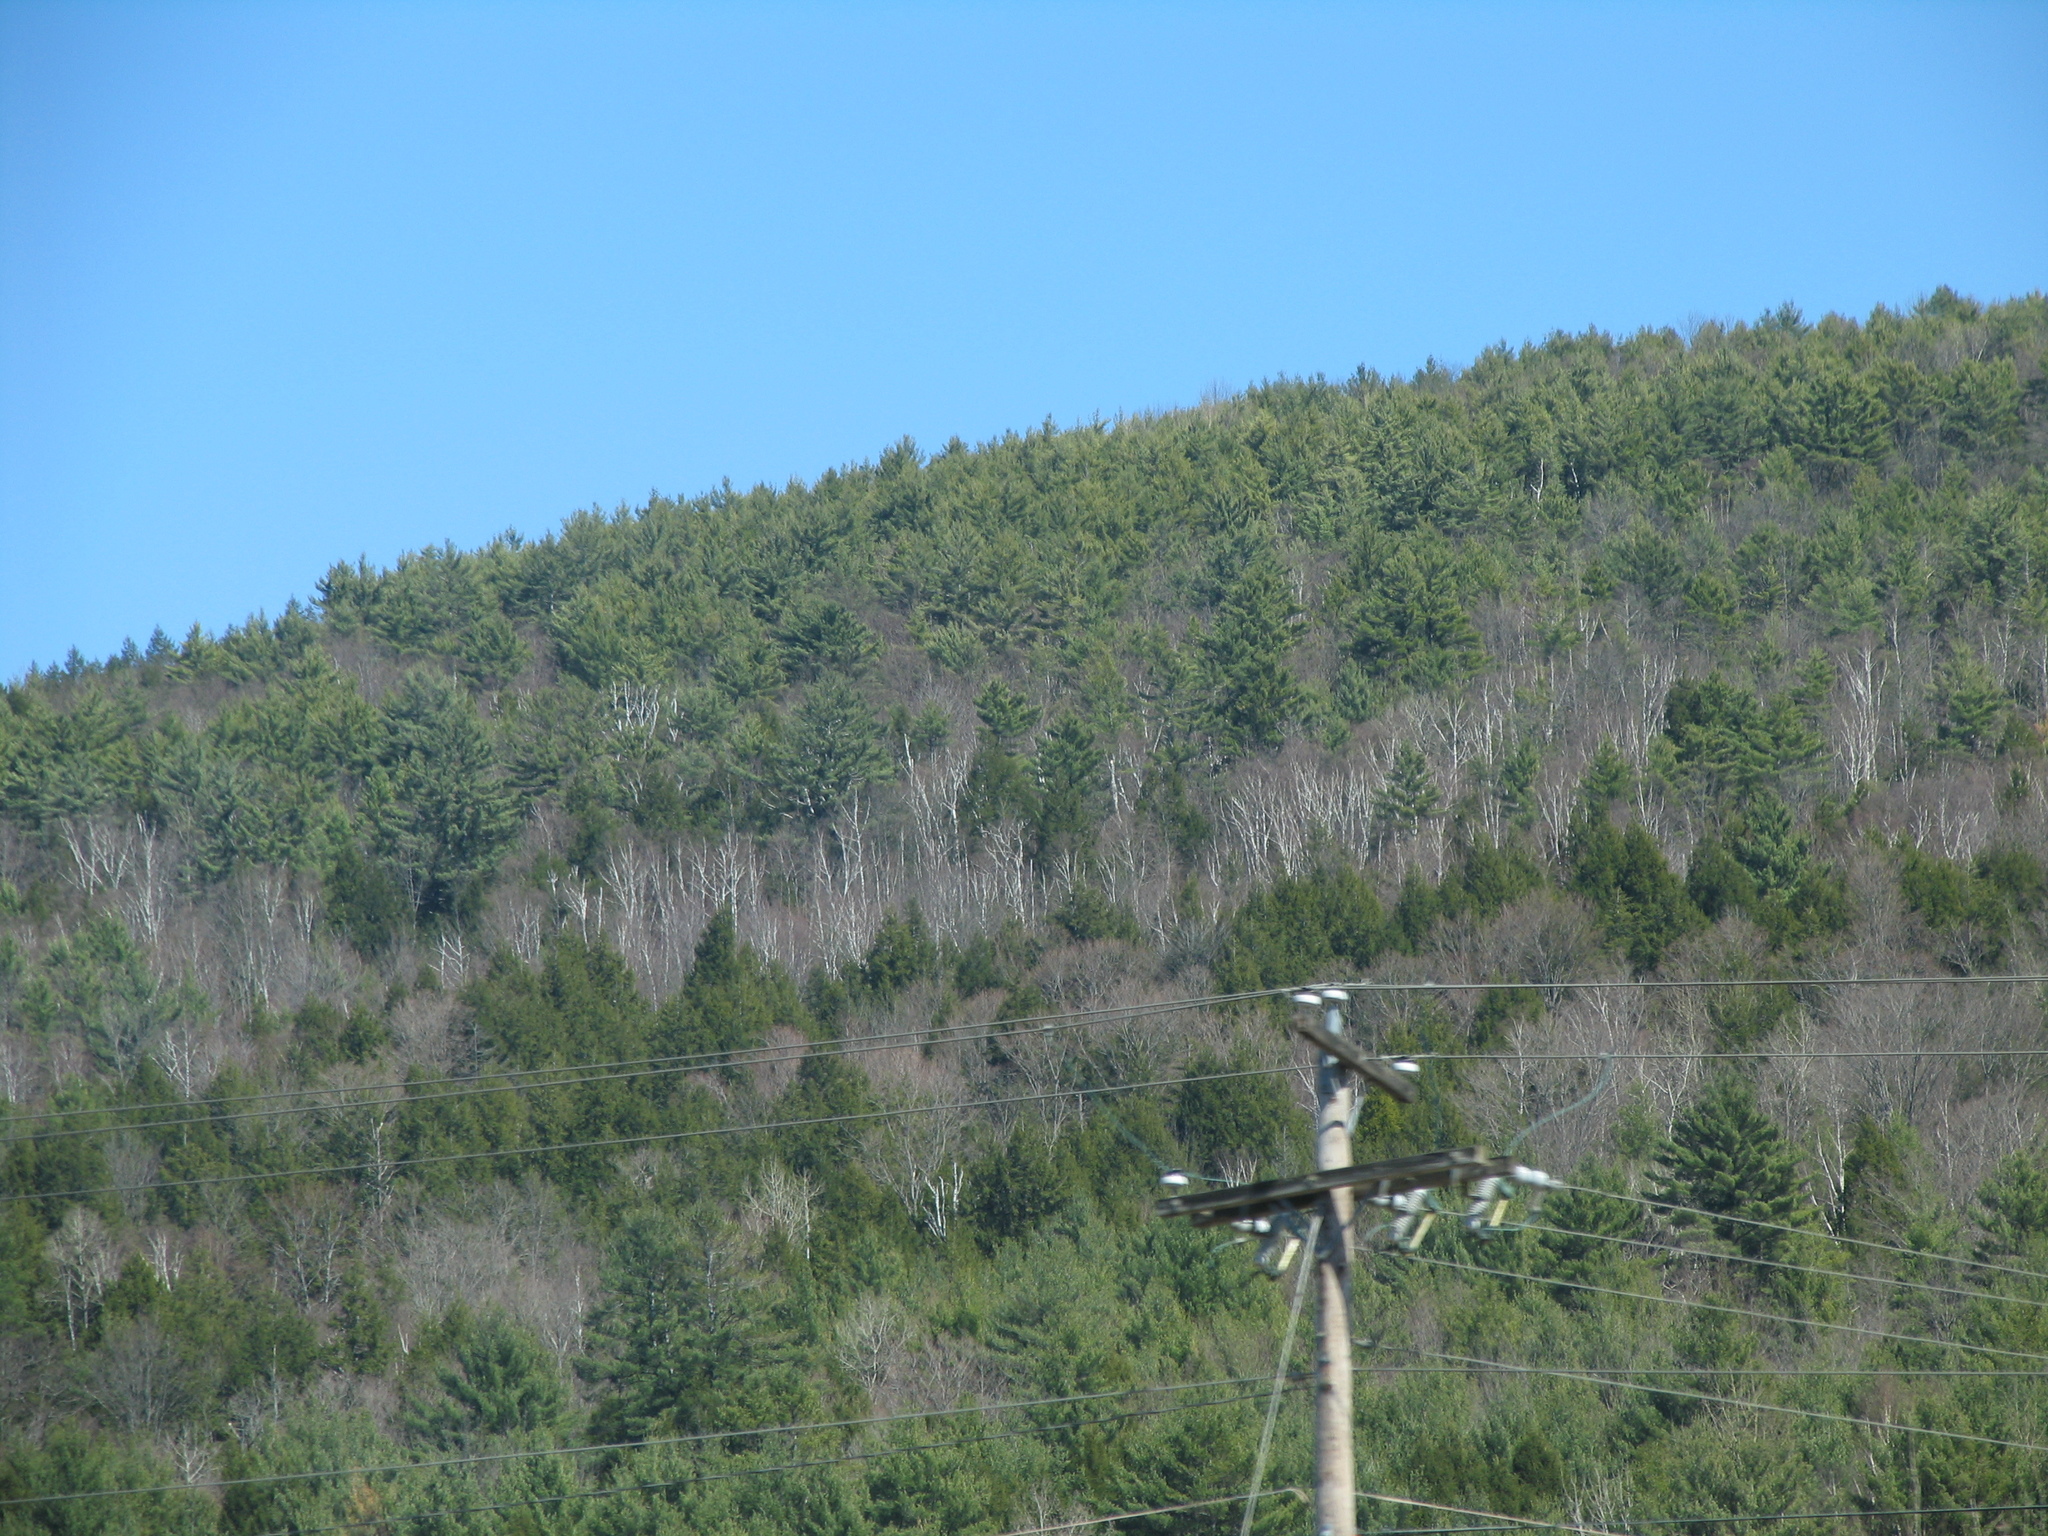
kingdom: Plantae
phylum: Tracheophyta
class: Pinopsida
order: Pinales
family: Pinaceae
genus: Pinus
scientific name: Pinus strobus
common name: Weymouth pine
